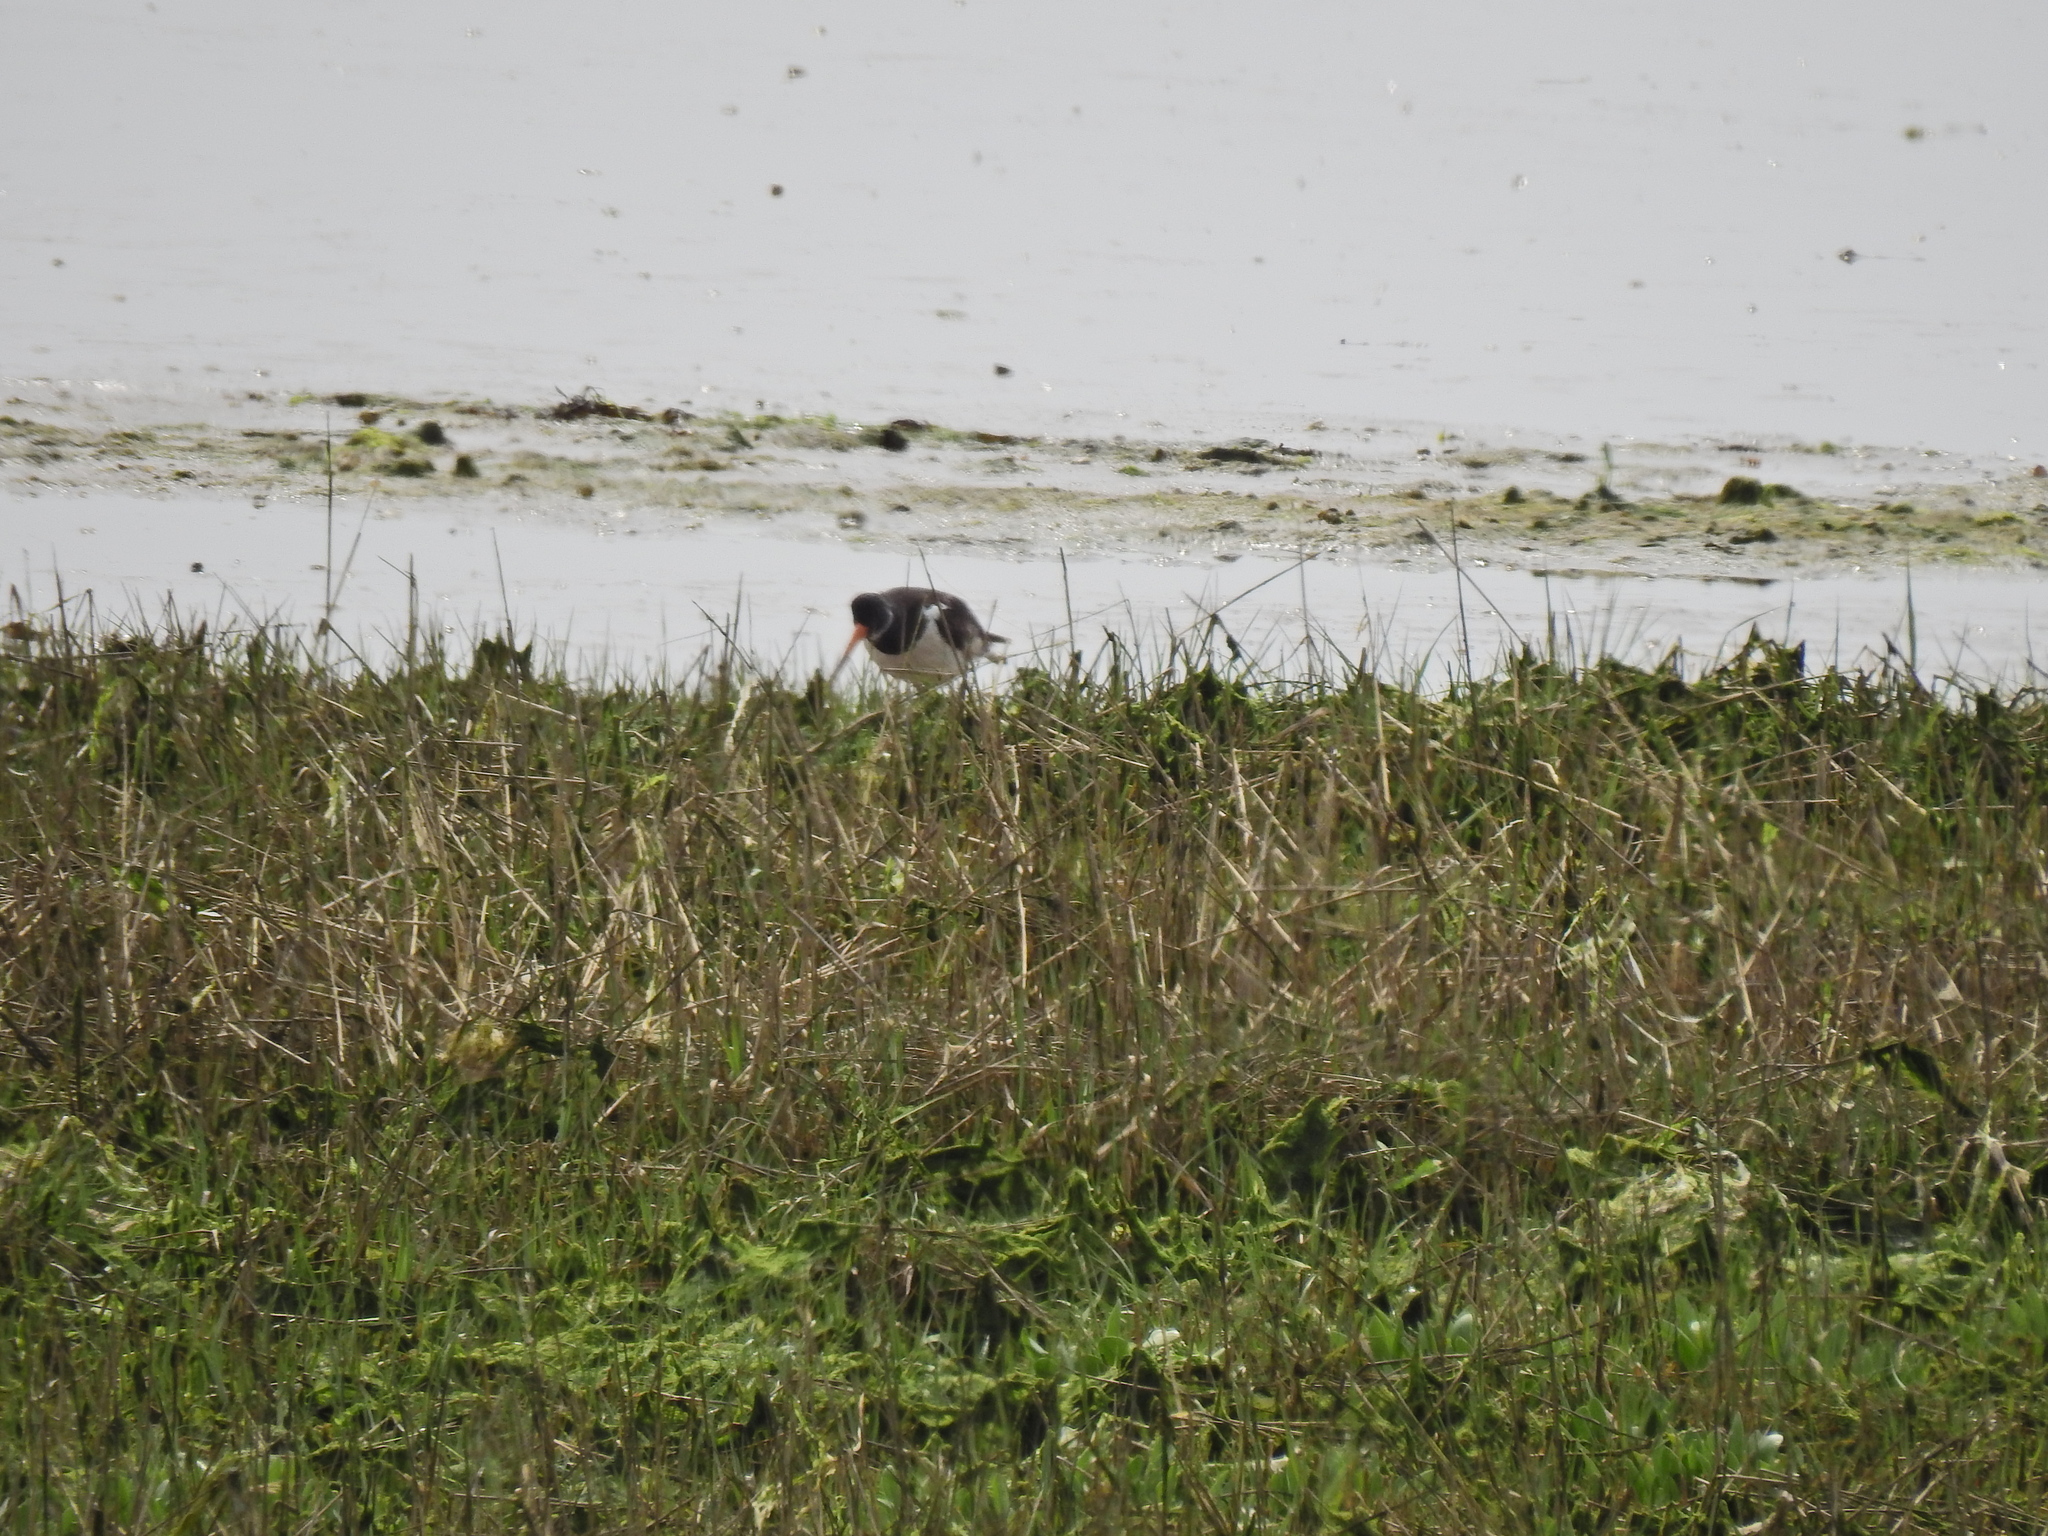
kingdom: Animalia
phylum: Chordata
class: Aves
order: Charadriiformes
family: Haematopodidae
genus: Haematopus
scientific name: Haematopus ostralegus
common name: Eurasian oystercatcher
